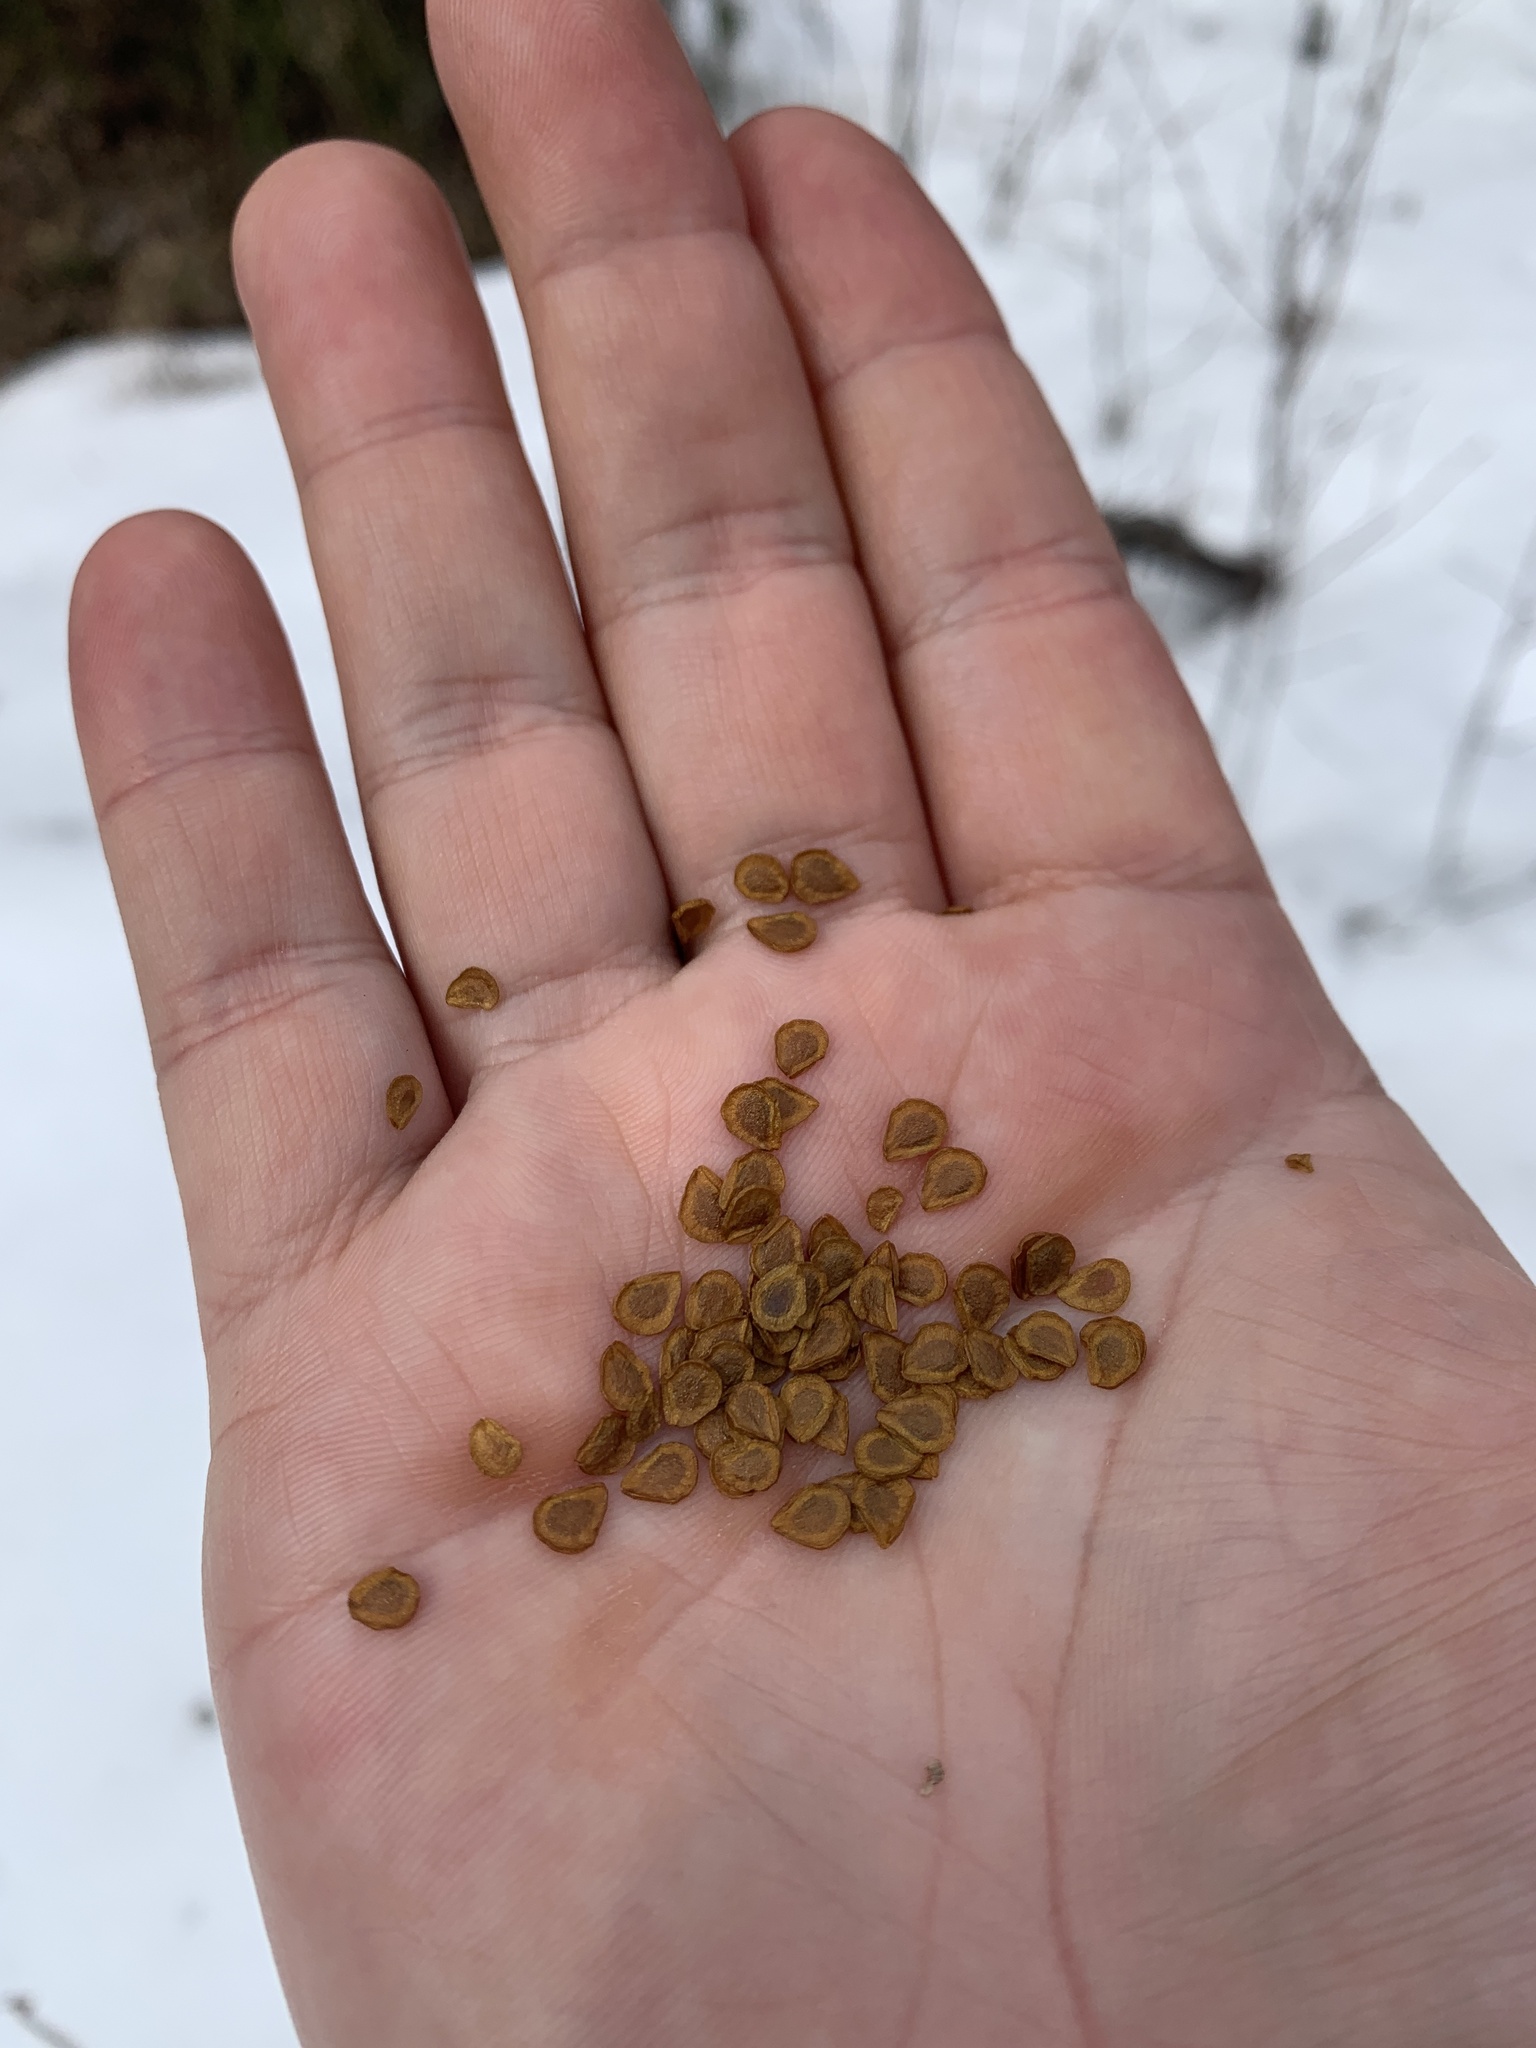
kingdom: Plantae
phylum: Tracheophyta
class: Liliopsida
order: Liliales
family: Liliaceae
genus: Lilium
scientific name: Lilium philadelphicum
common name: Red lily
